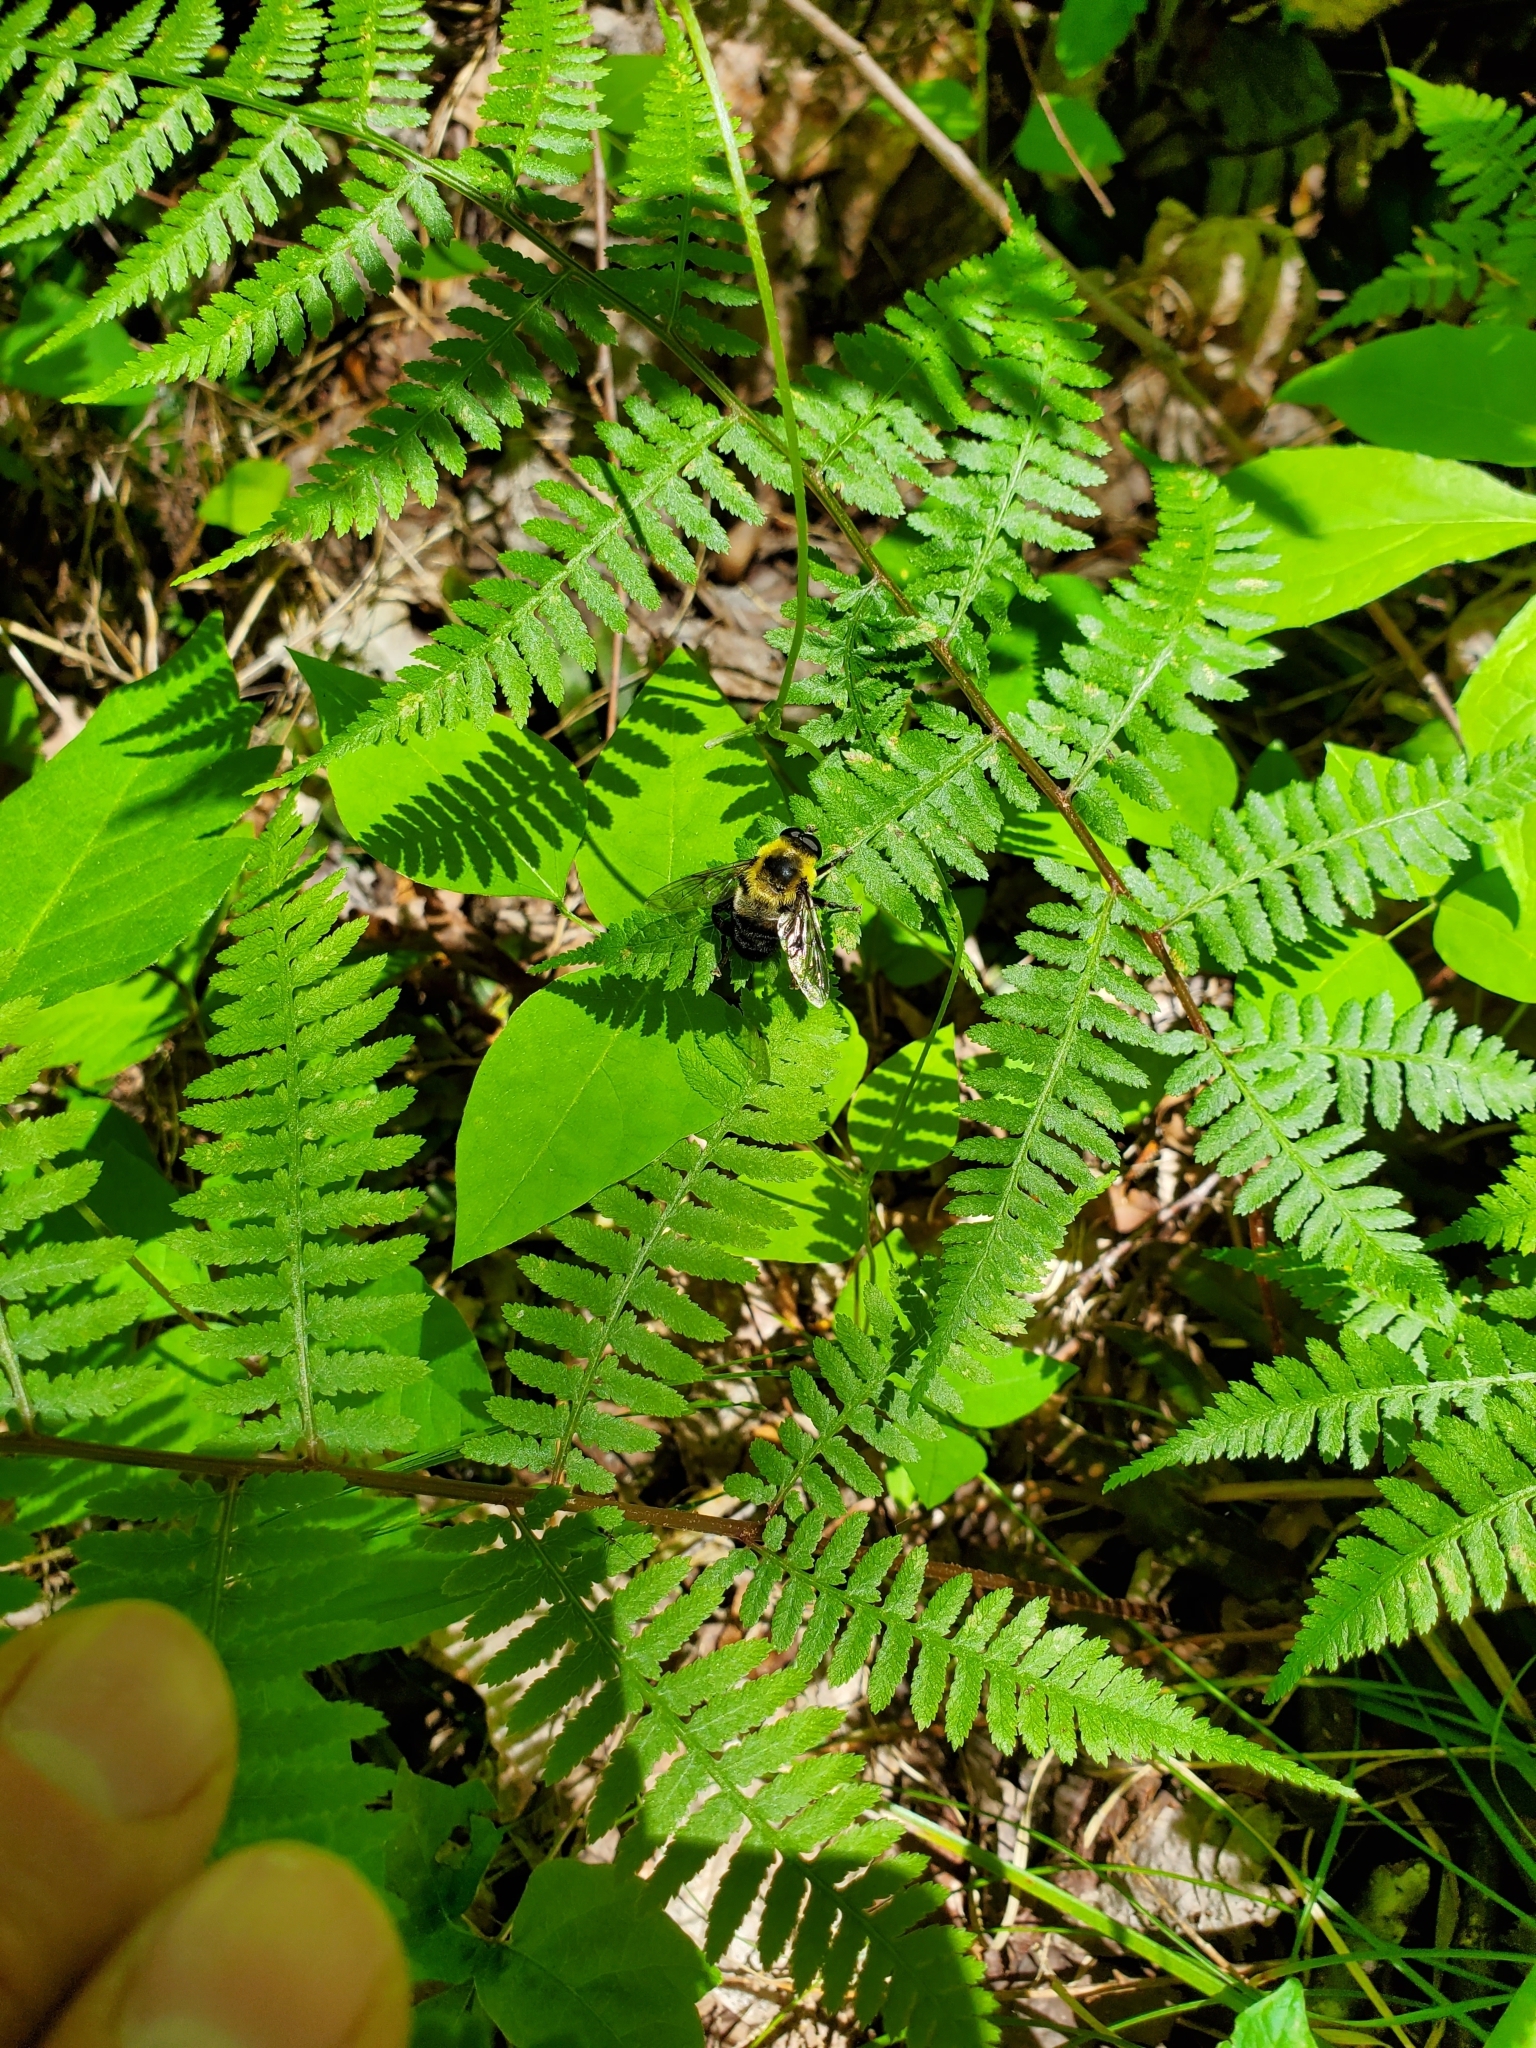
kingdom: Animalia
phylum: Arthropoda
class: Insecta
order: Diptera
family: Syrphidae
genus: Imatisma
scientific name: Imatisma posticata
